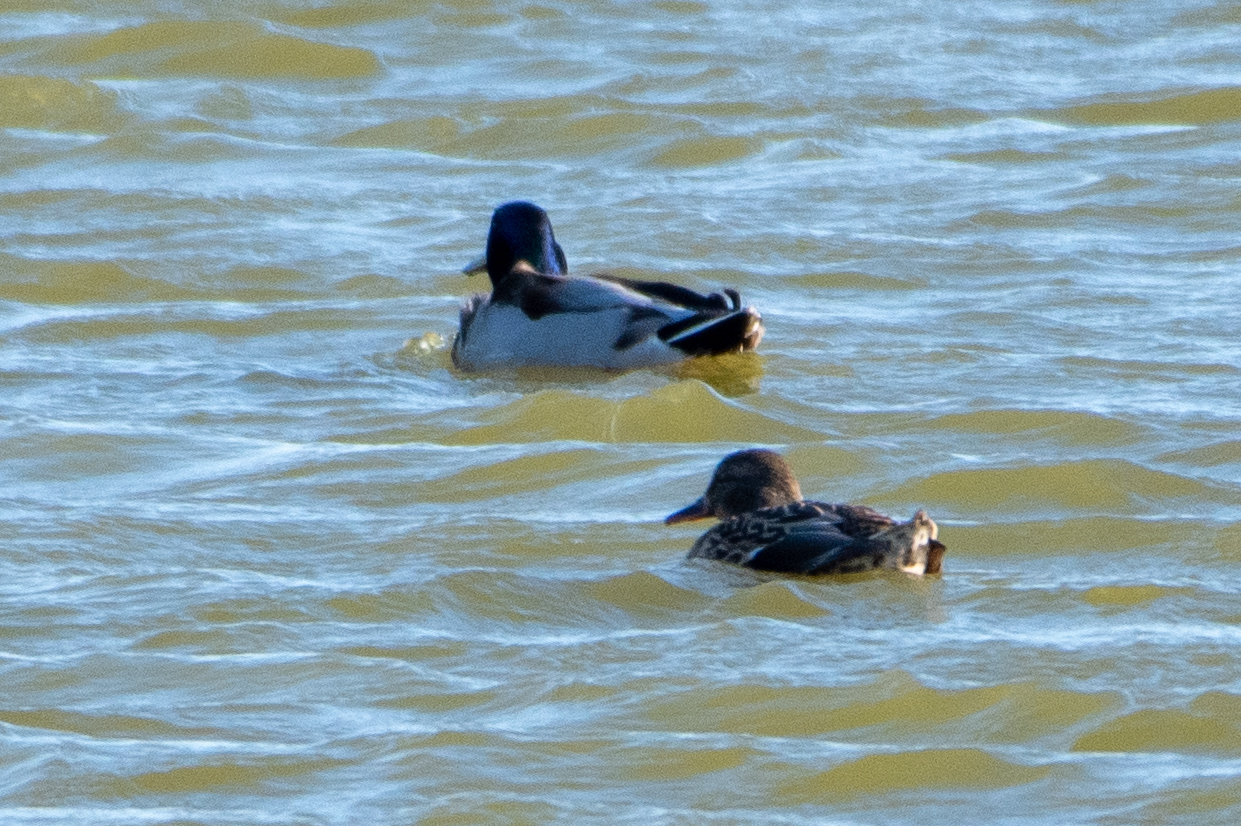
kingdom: Animalia
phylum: Chordata
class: Aves
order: Anseriformes
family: Anatidae
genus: Anas
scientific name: Anas platyrhynchos
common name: Mallard
